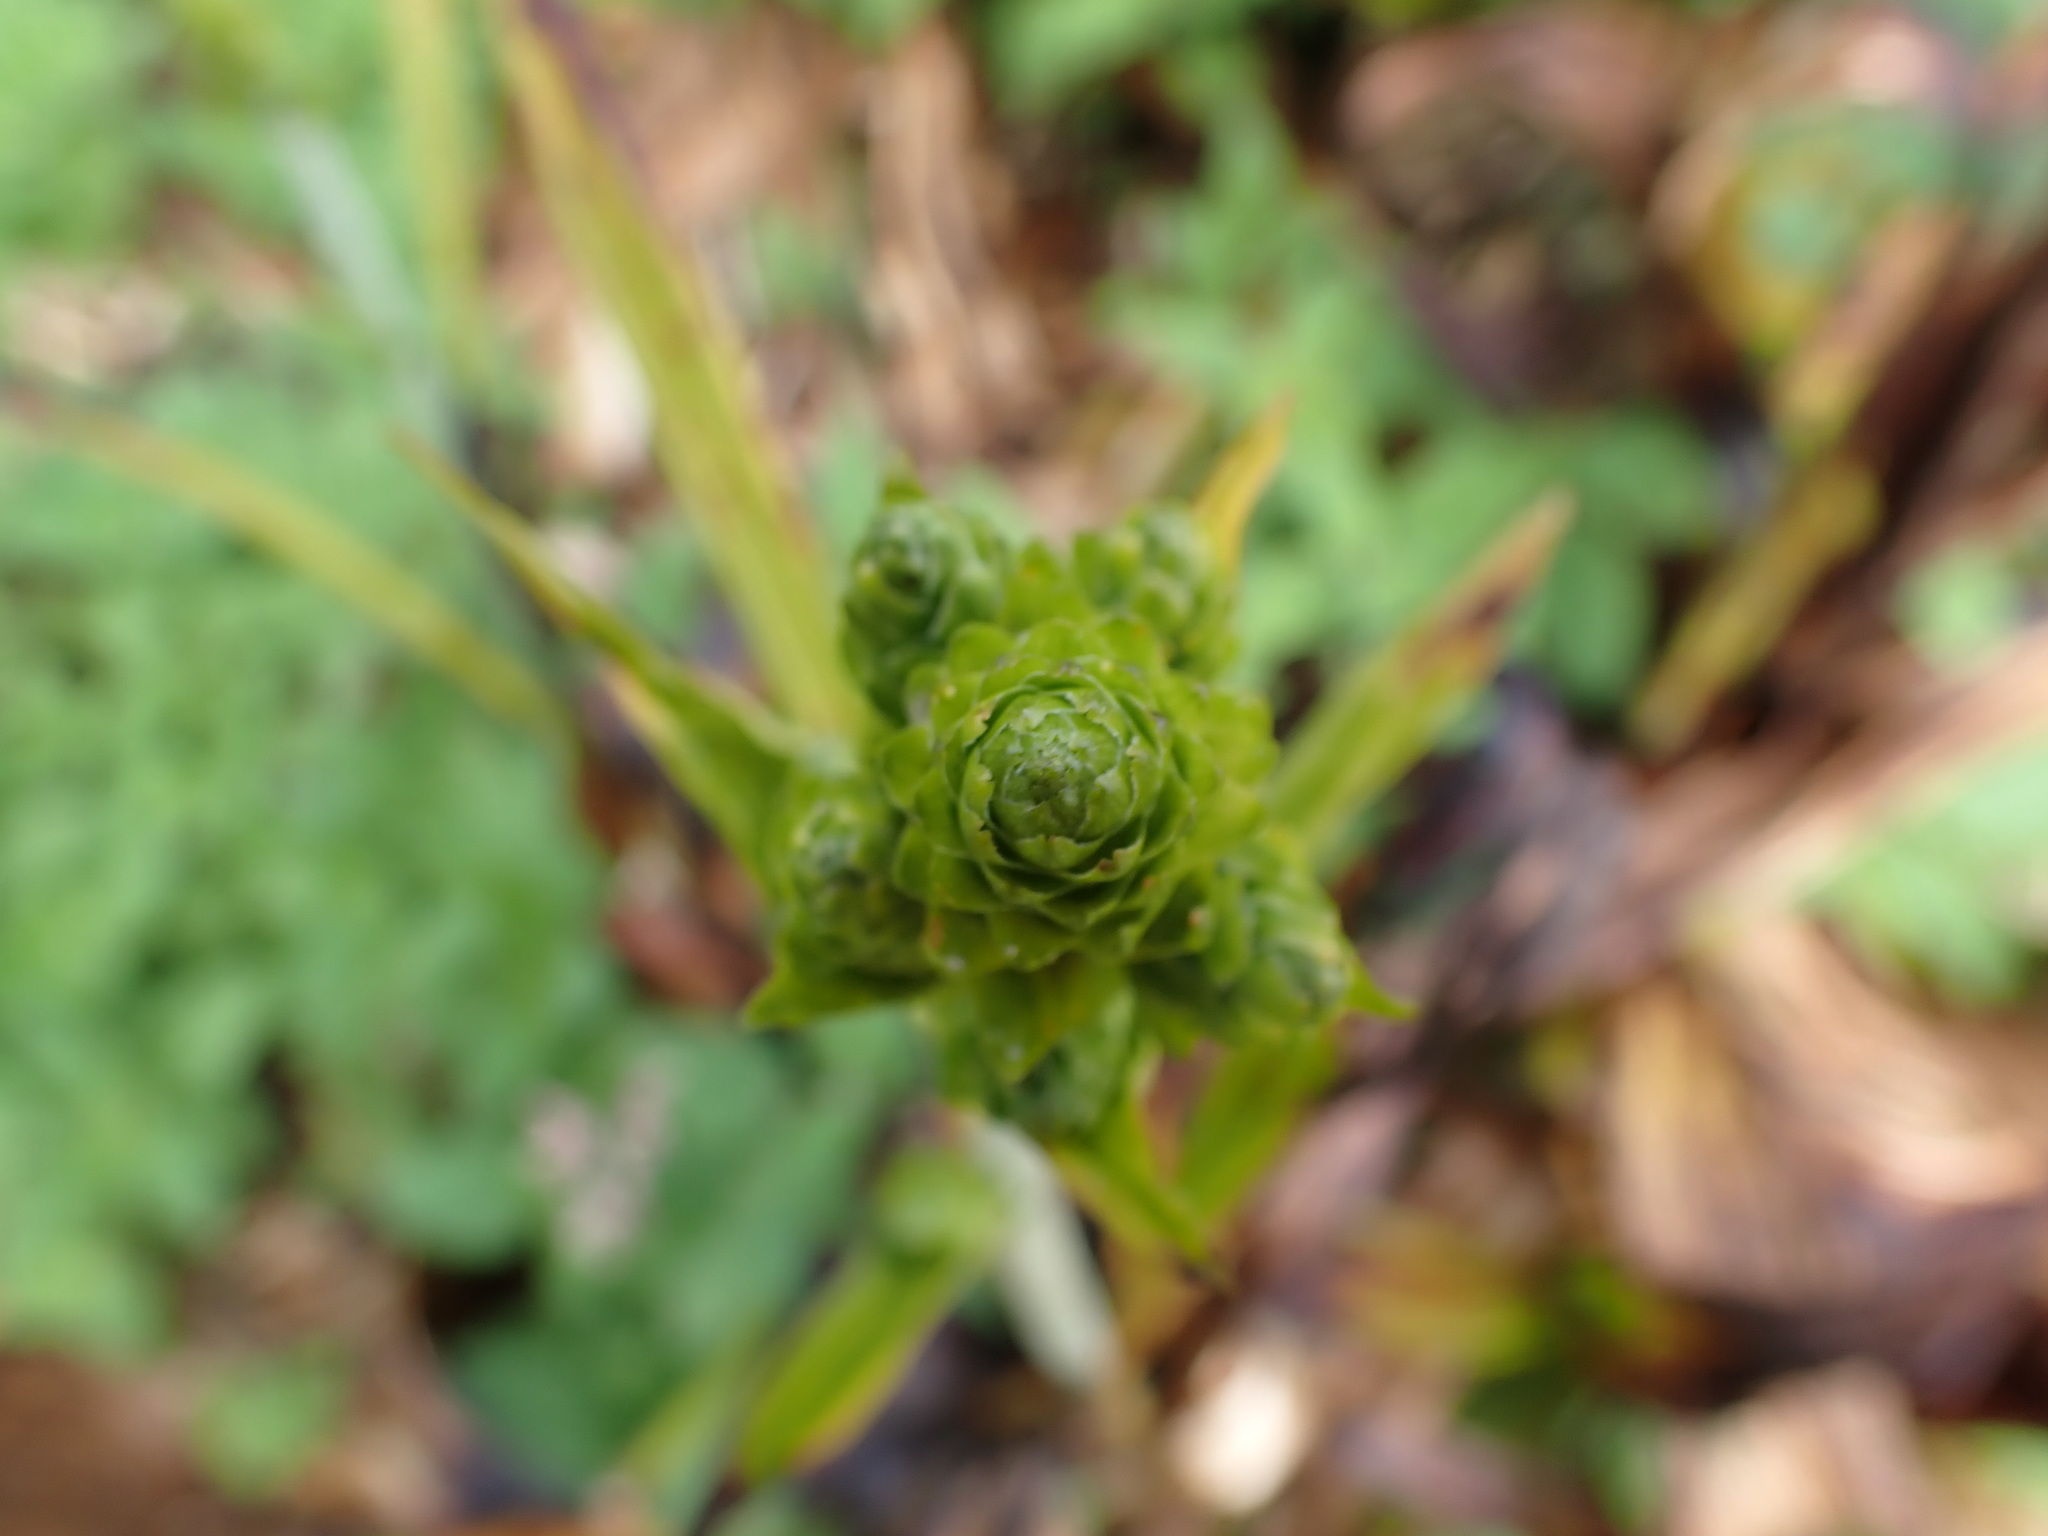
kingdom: Plantae
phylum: Tracheophyta
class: Liliopsida
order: Liliales
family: Melanthiaceae
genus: Veratrum
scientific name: Veratrum fimbriatum
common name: Fringe false hellobore
